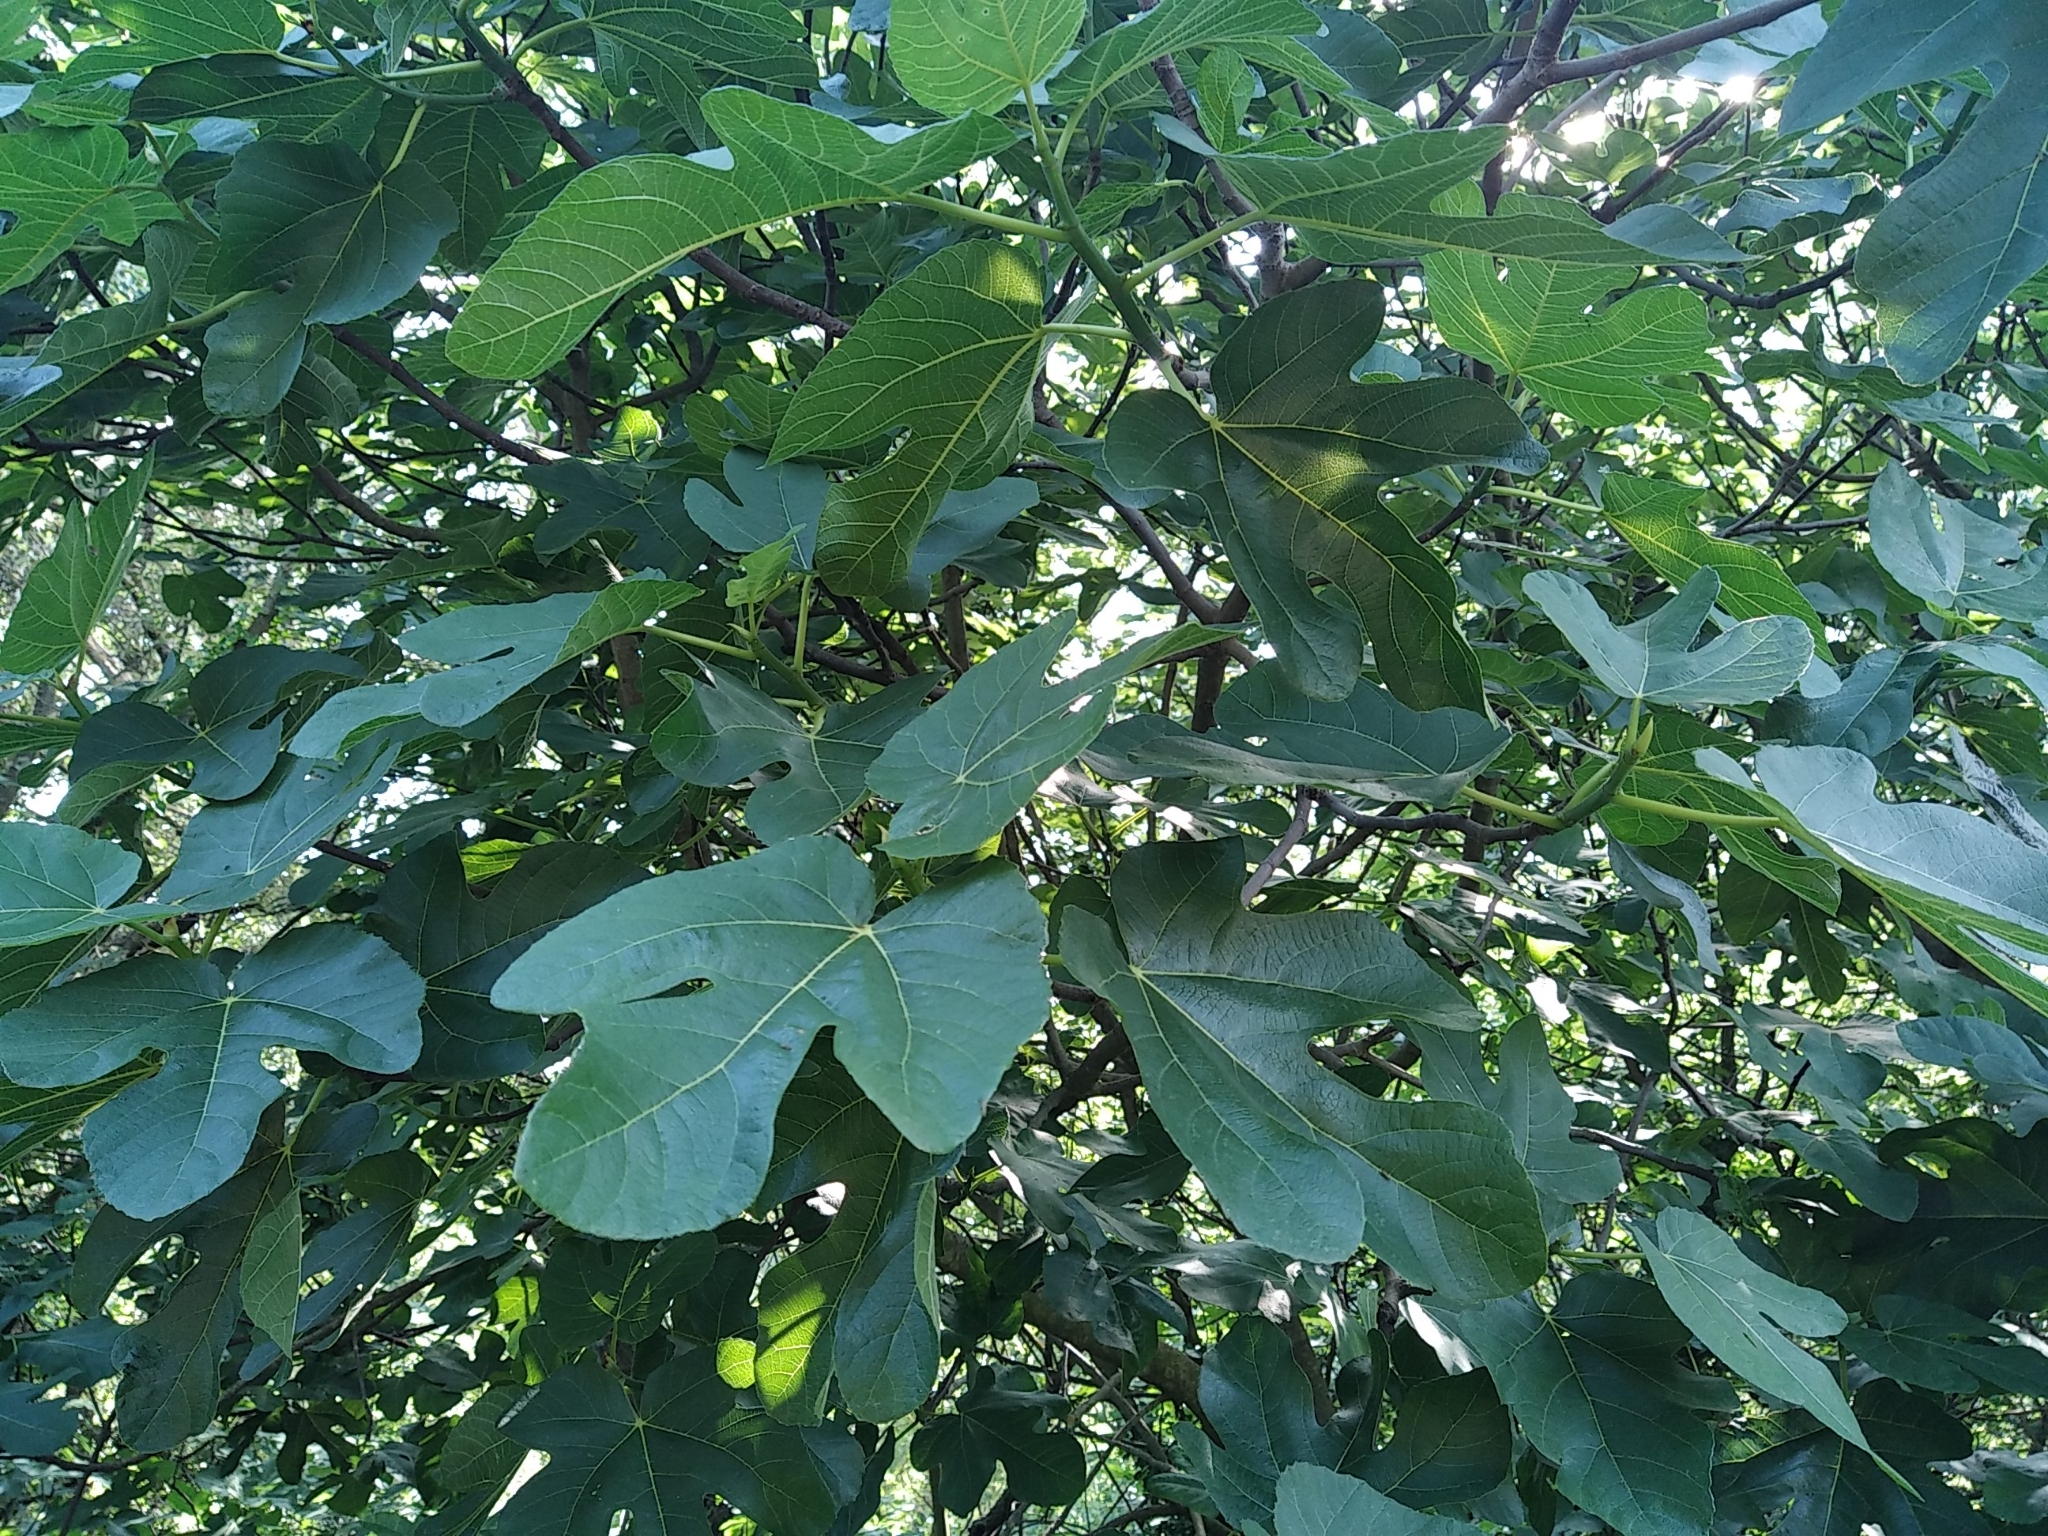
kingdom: Plantae
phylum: Tracheophyta
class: Magnoliopsida
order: Rosales
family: Moraceae
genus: Ficus
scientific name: Ficus carica
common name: Fig
